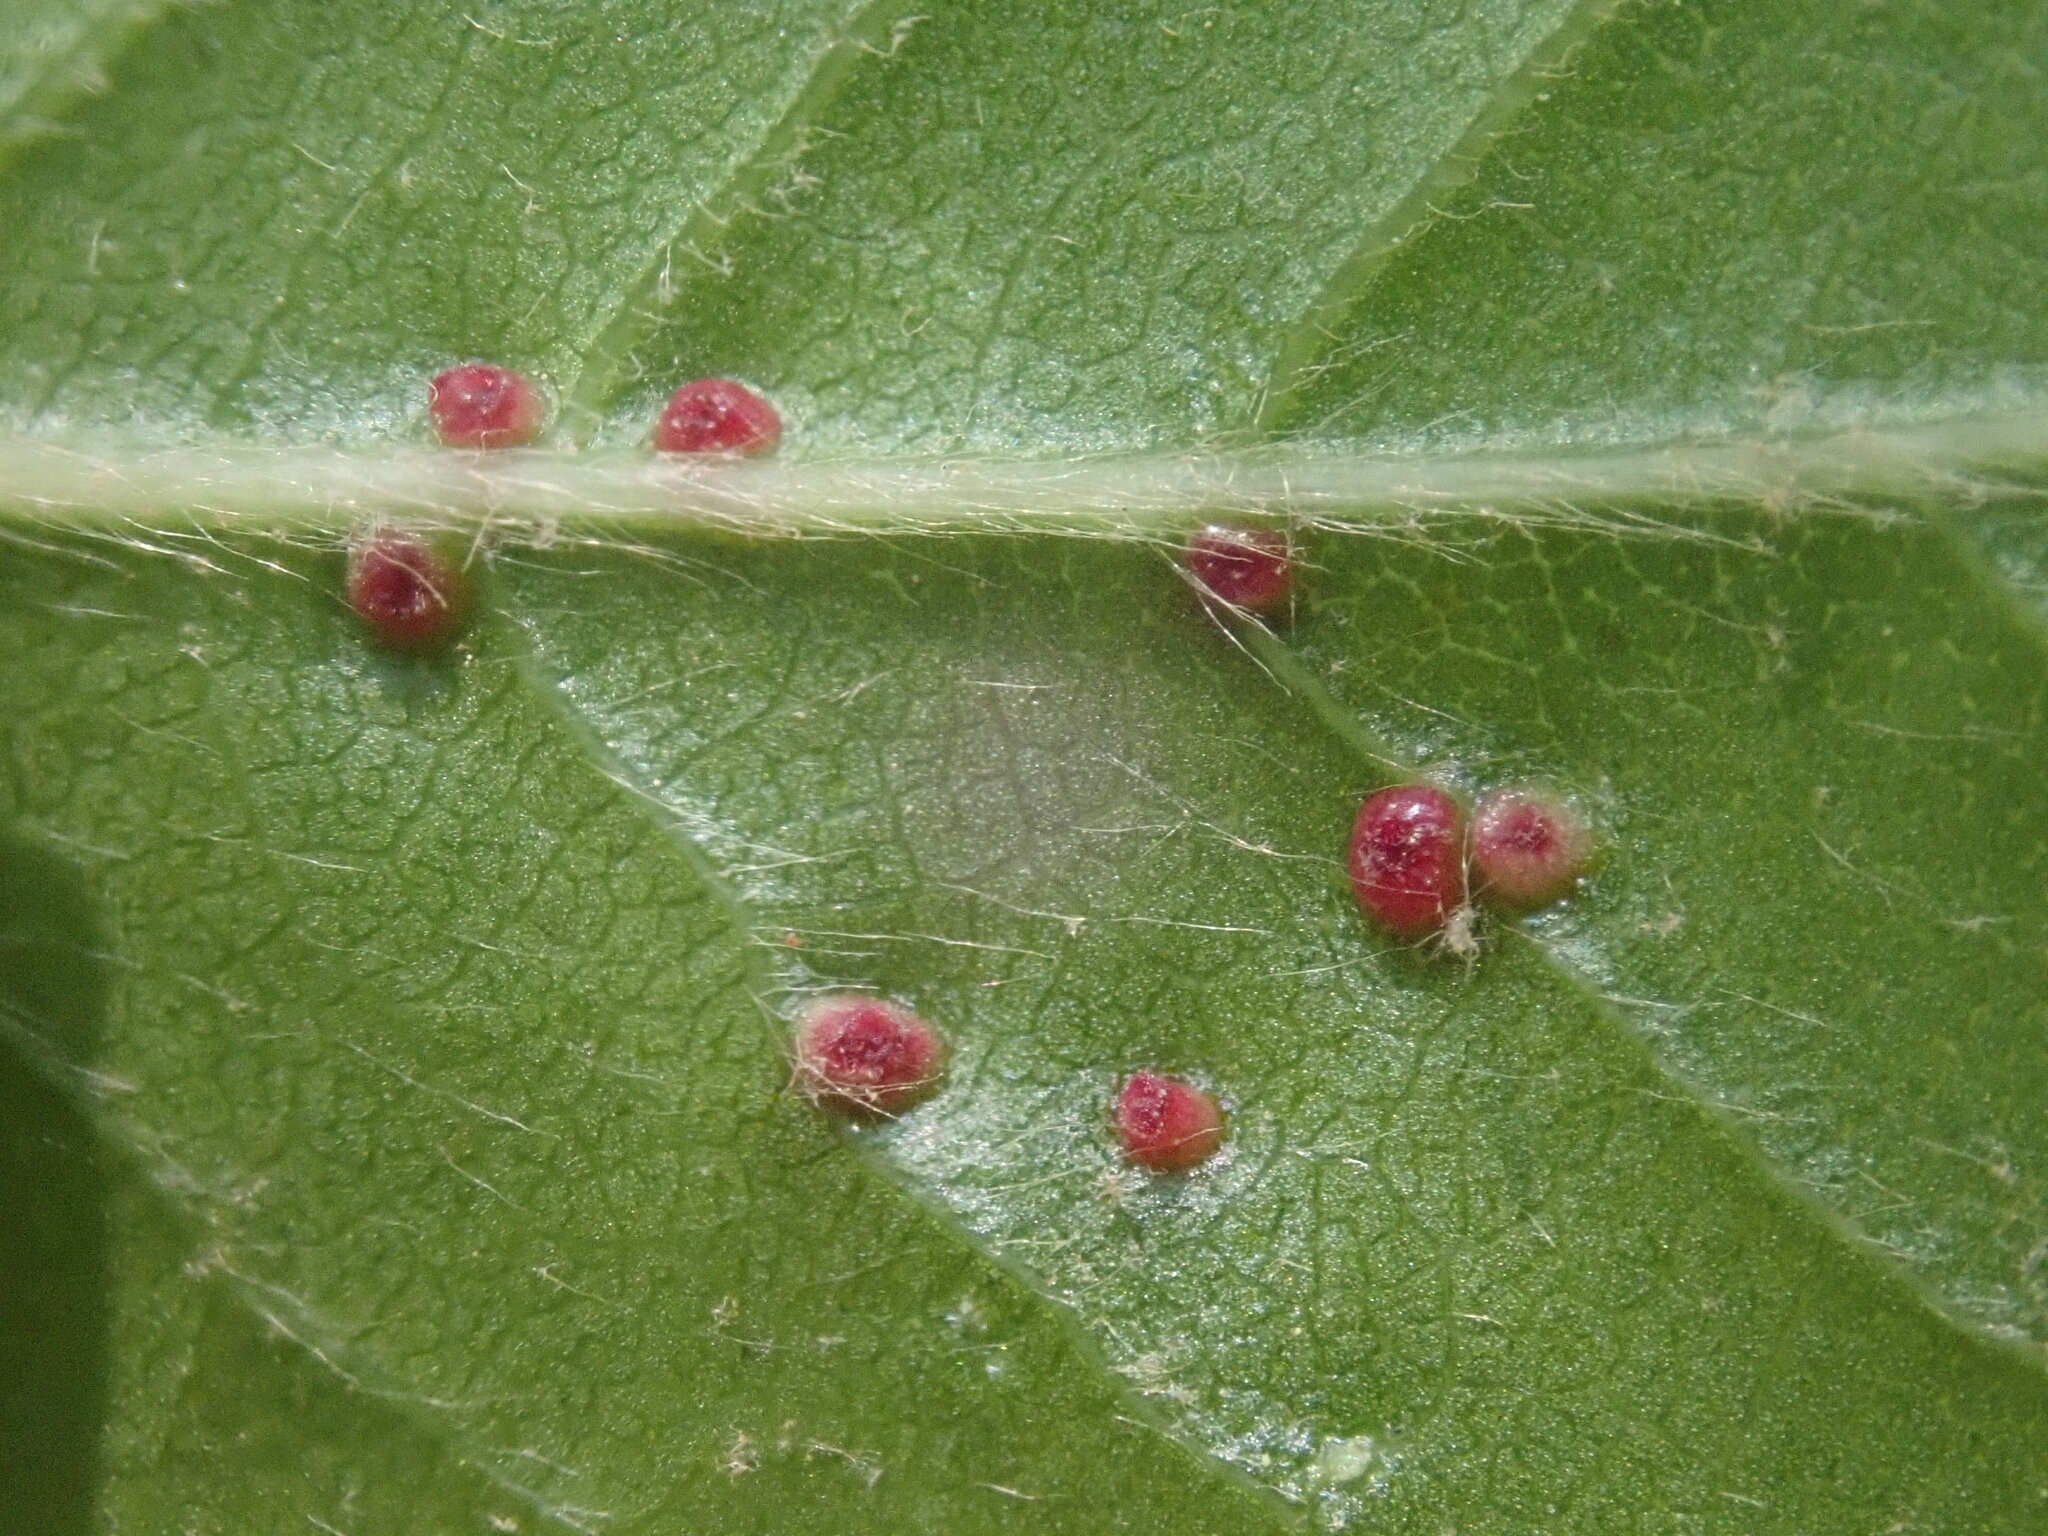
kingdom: Animalia
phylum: Arthropoda
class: Arachnida
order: Trombidiformes
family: Eriophyidae
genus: Aceria
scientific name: Aceria
